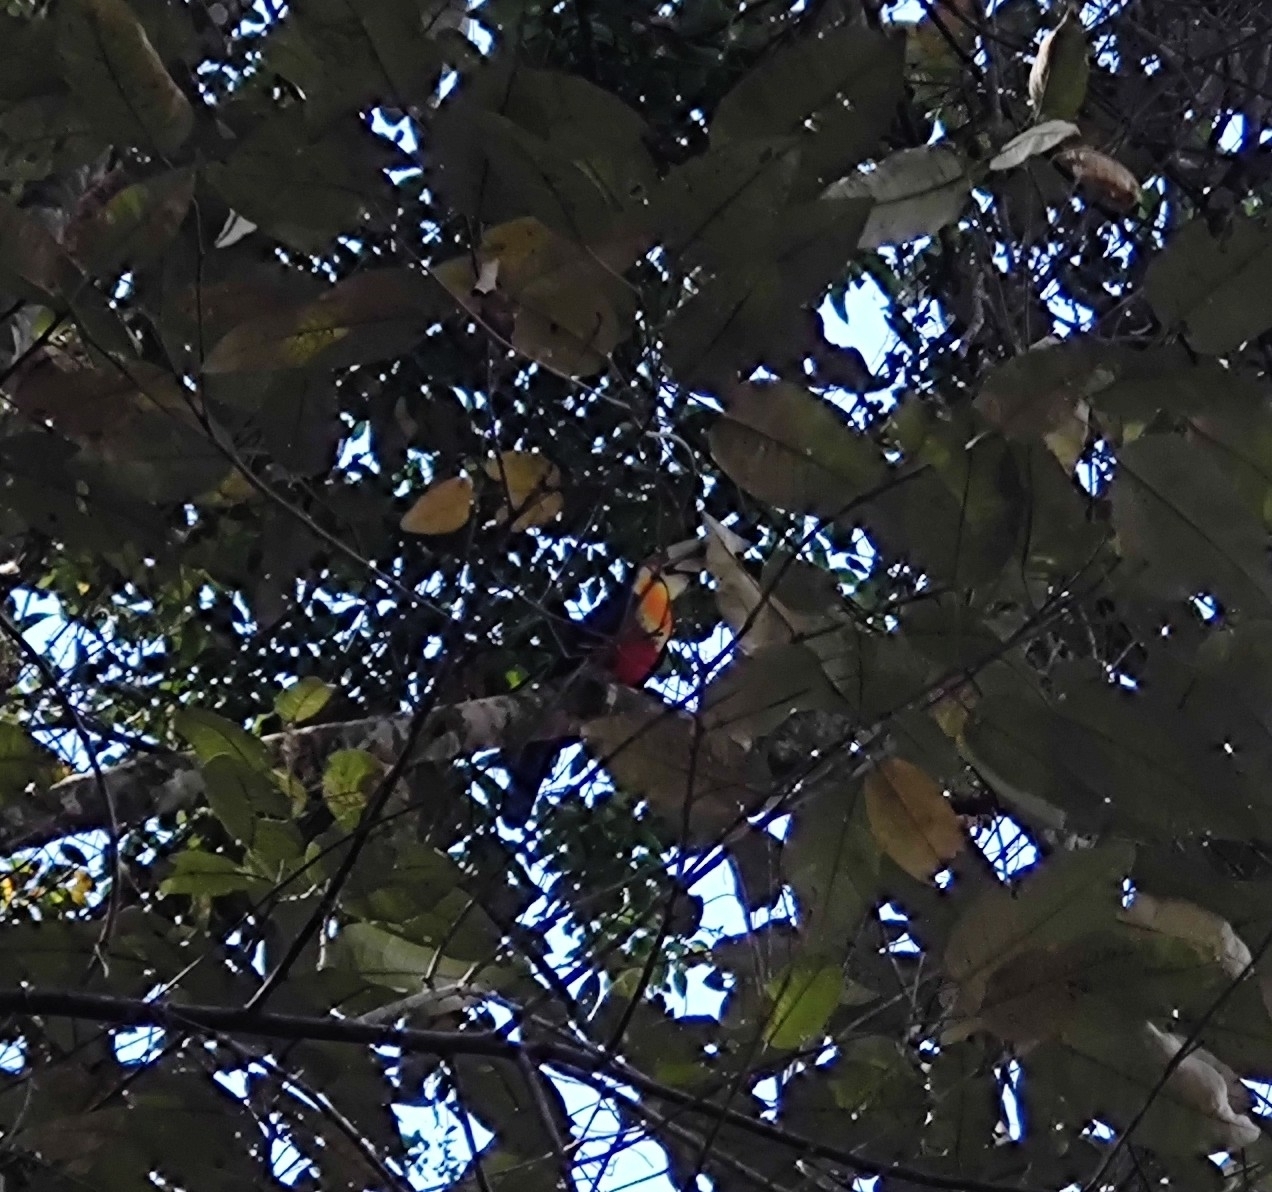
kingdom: Animalia
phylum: Chordata
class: Aves
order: Piciformes
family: Ramphastidae
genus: Ramphastos
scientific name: Ramphastos dicolorus
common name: Green-billed toucan
